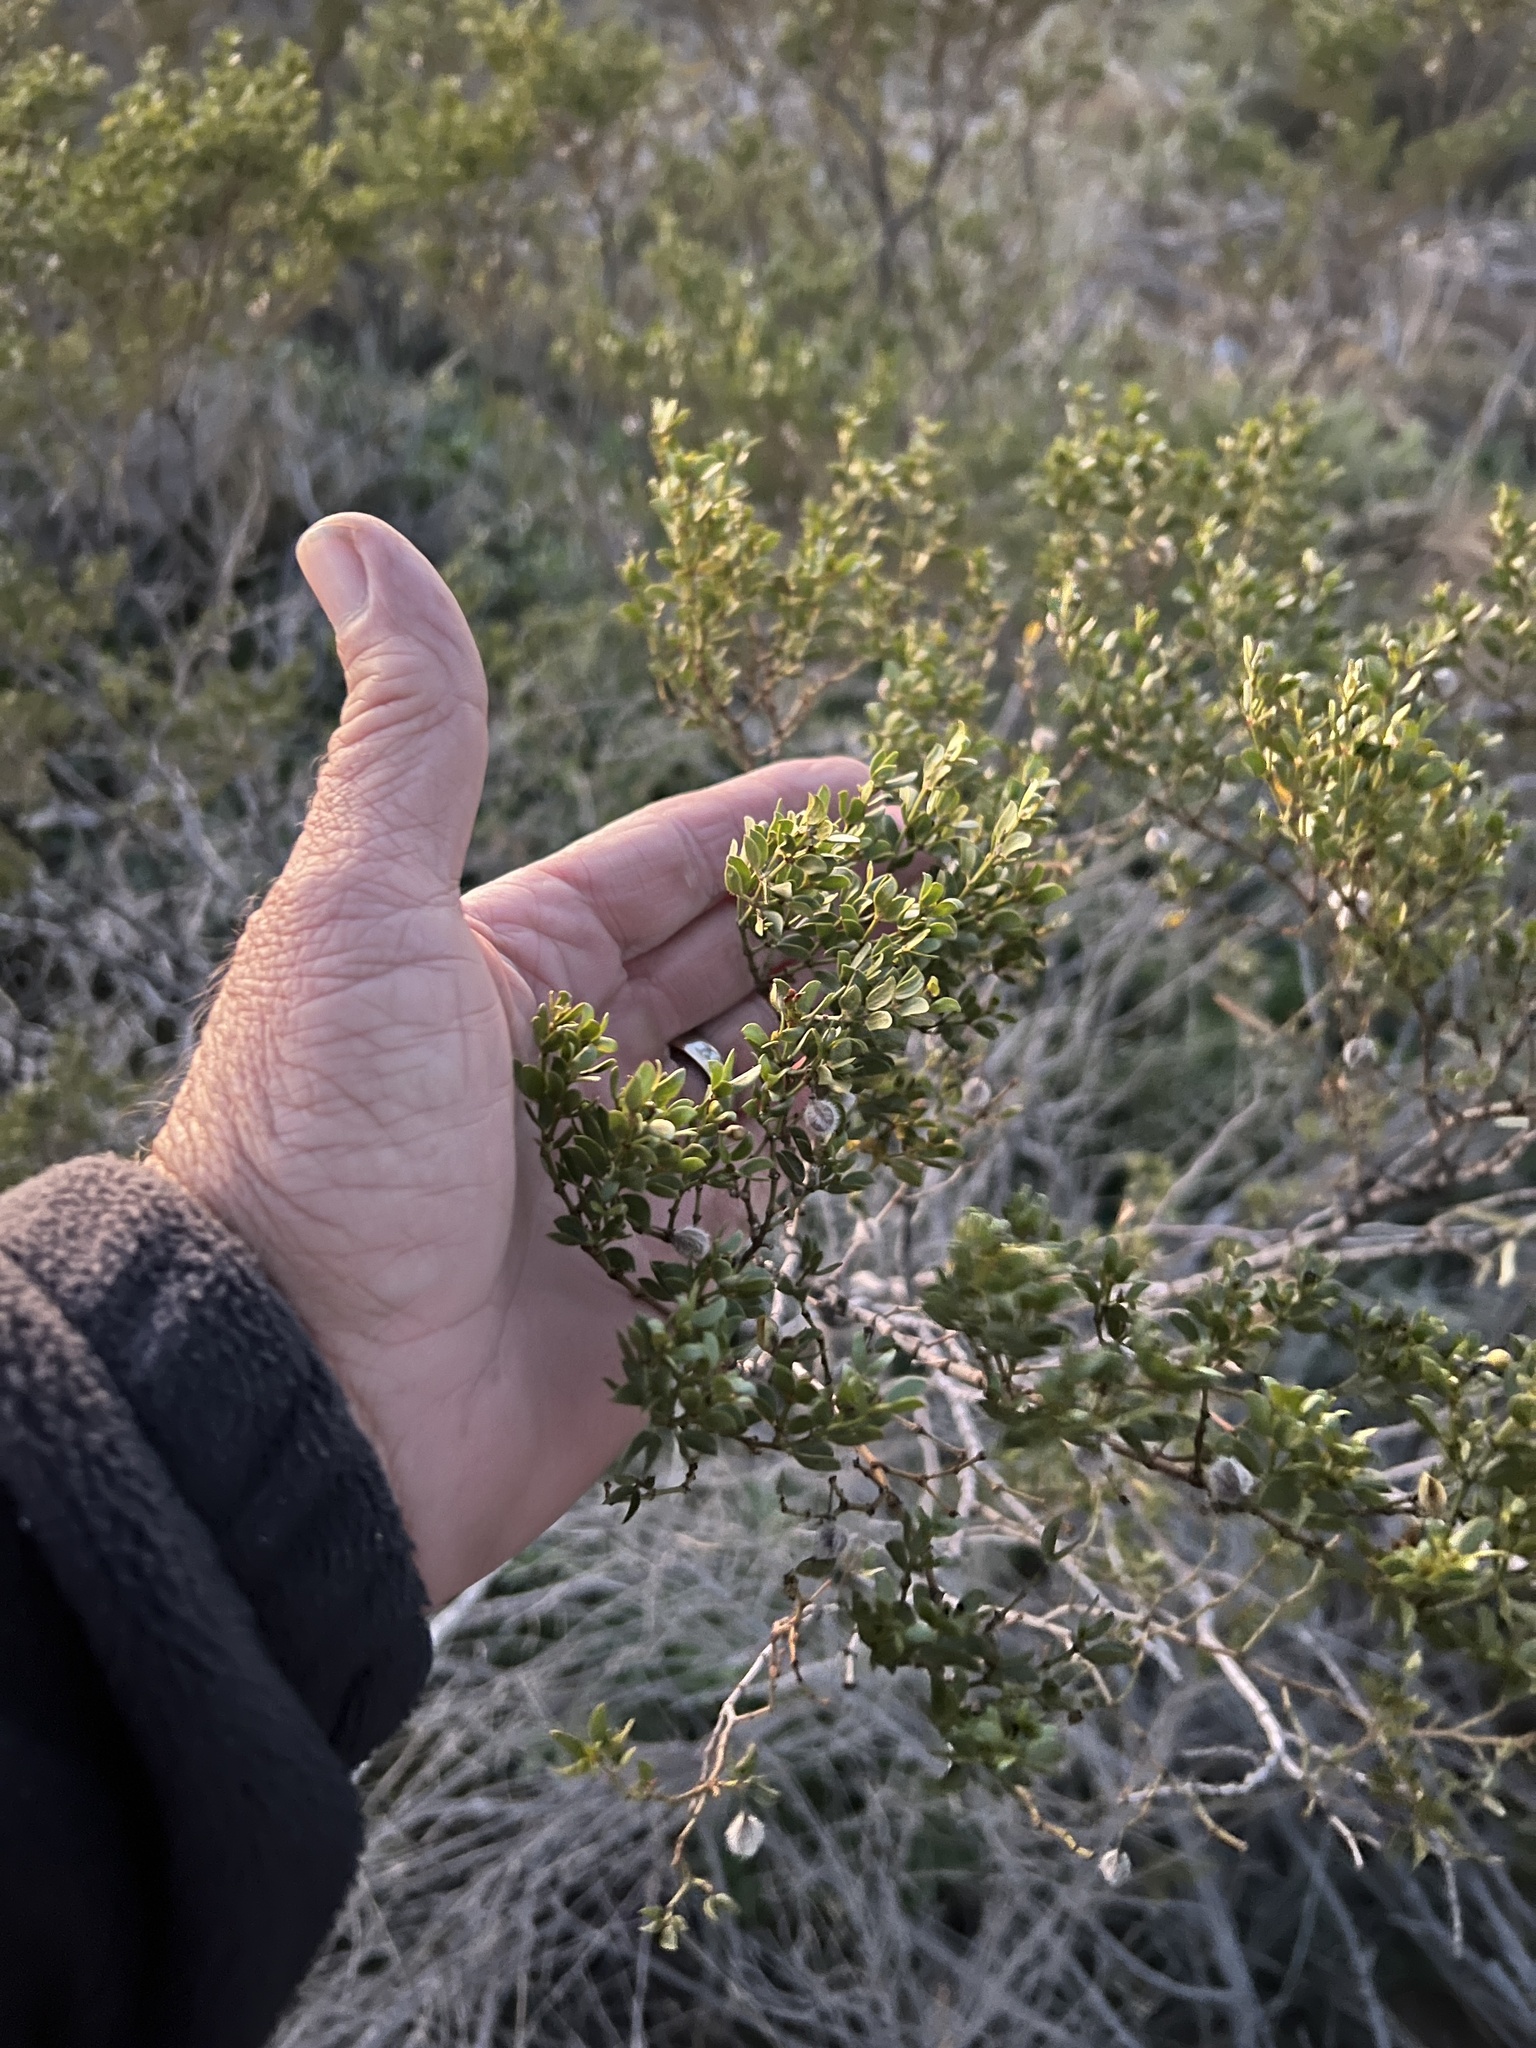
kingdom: Plantae
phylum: Tracheophyta
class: Magnoliopsida
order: Zygophyllales
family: Zygophyllaceae
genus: Larrea
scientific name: Larrea tridentata
